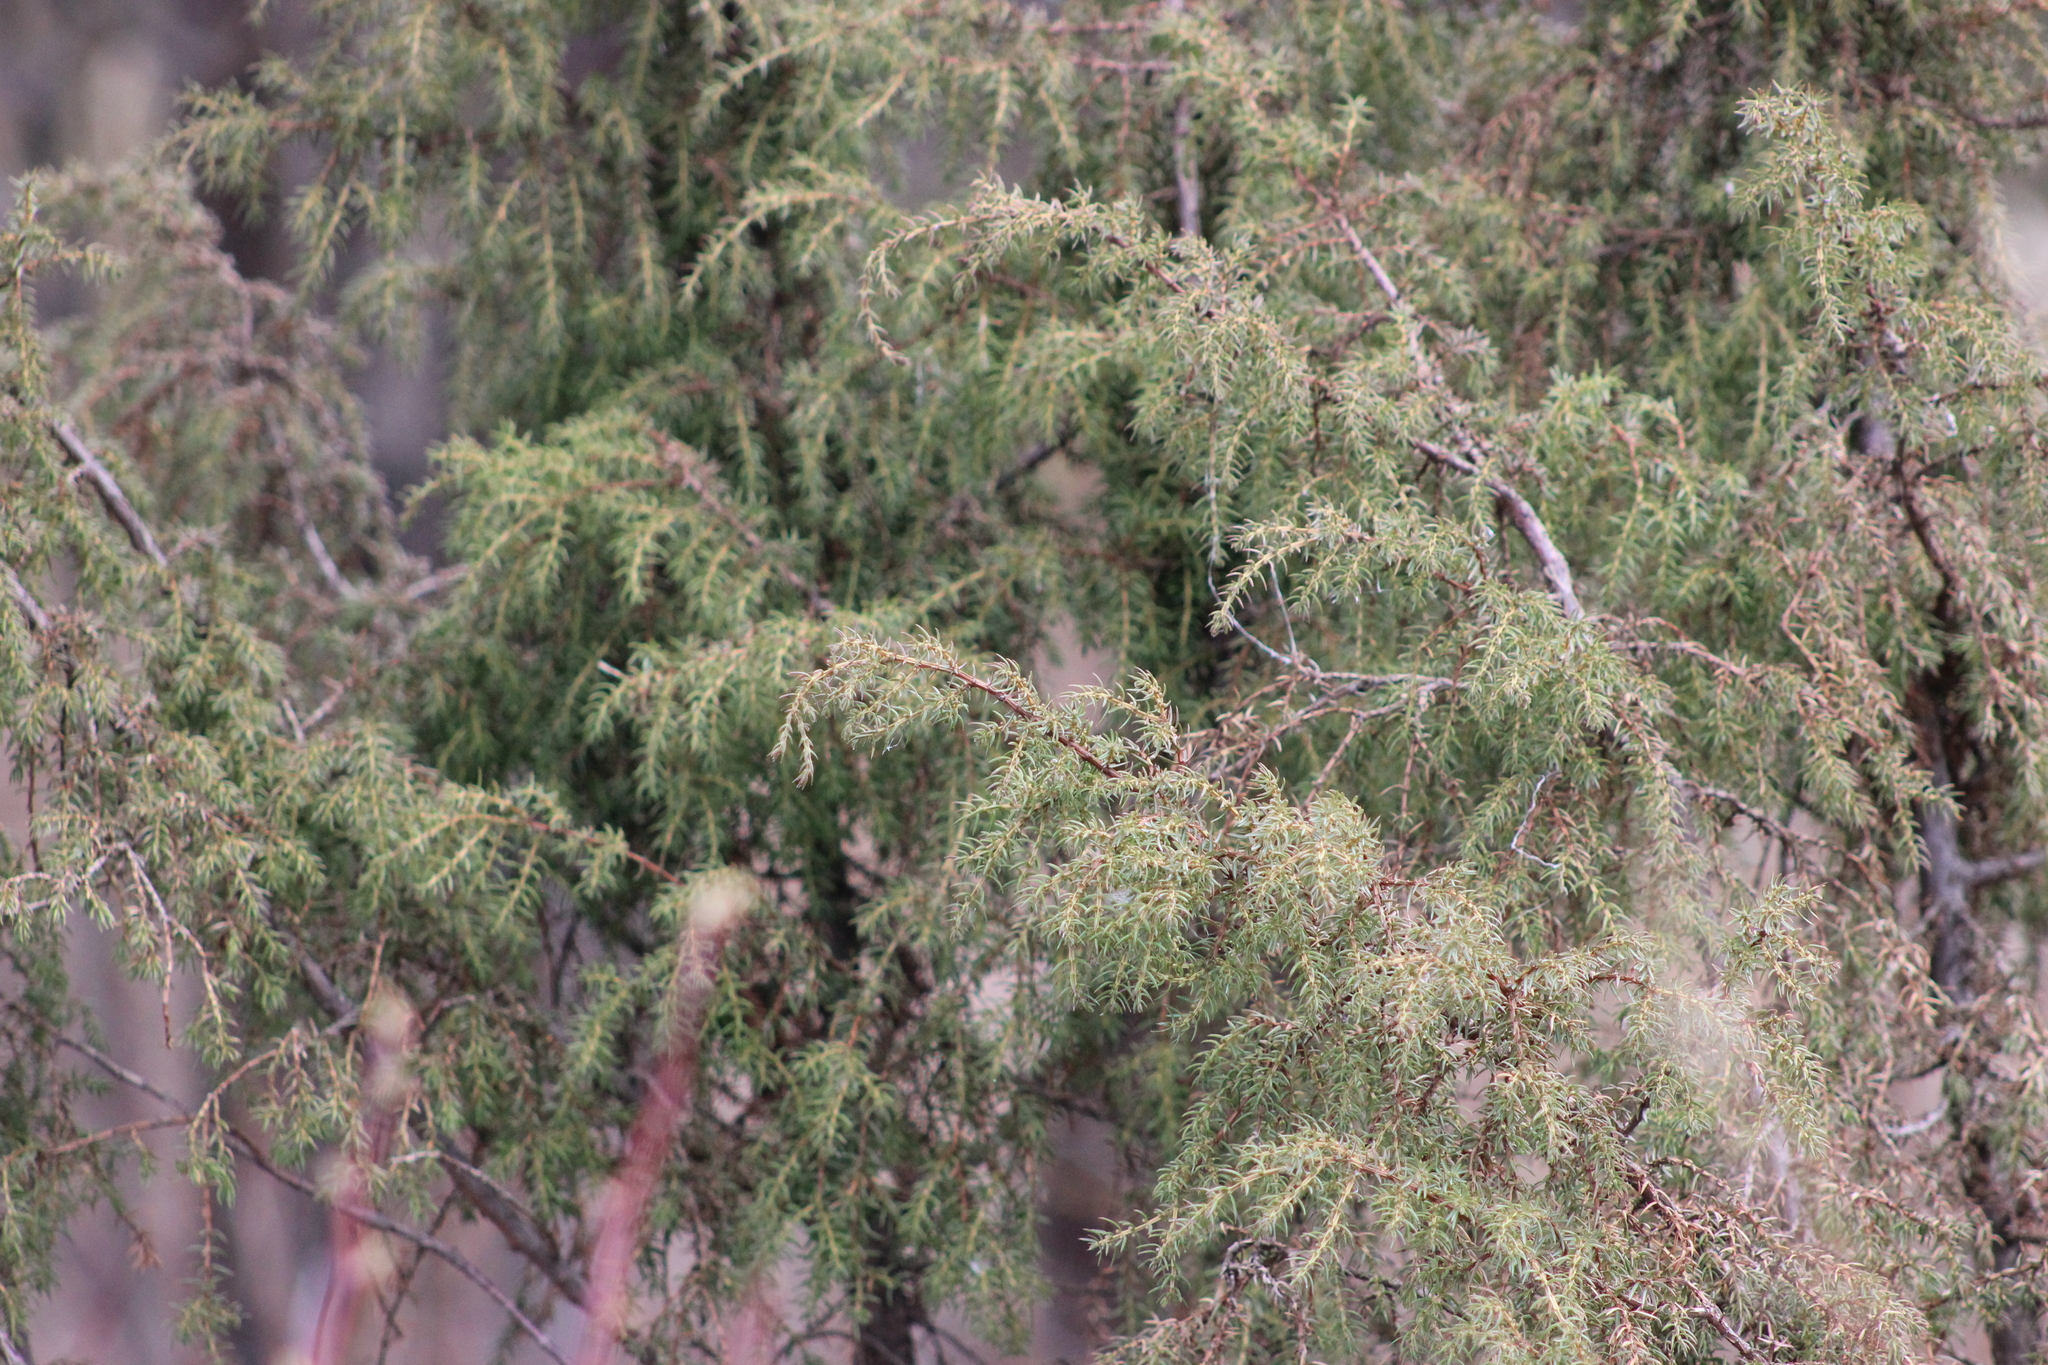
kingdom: Plantae
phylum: Tracheophyta
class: Pinopsida
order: Pinales
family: Cupressaceae
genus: Juniperus
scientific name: Juniperus communis
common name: Common juniper
